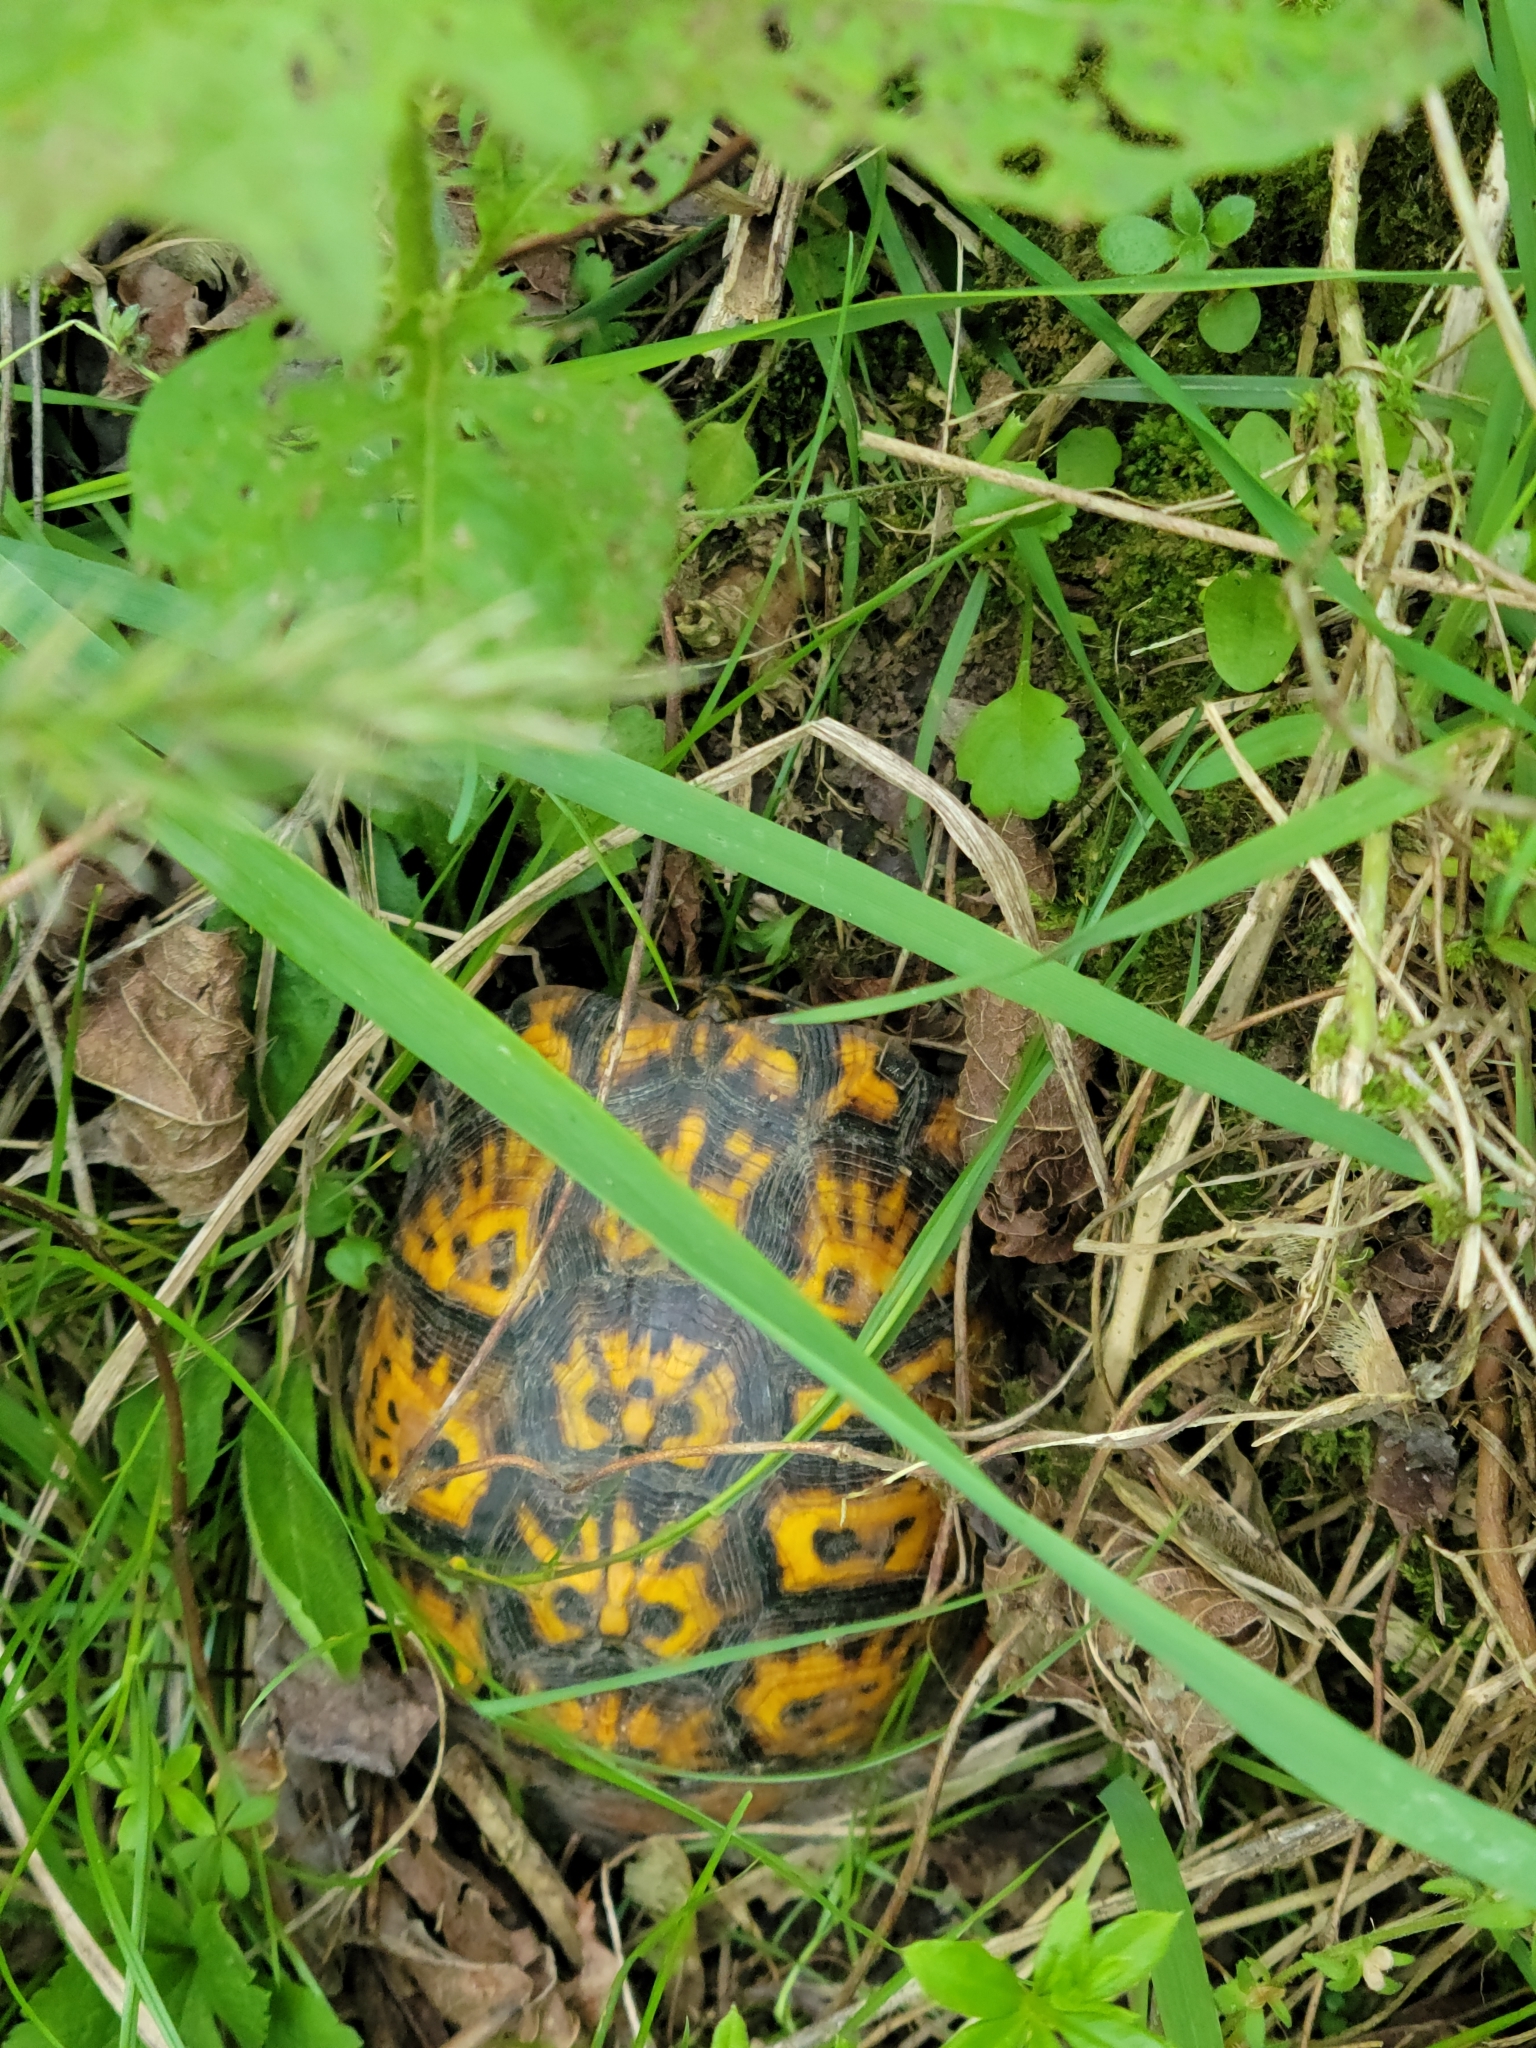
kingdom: Animalia
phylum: Chordata
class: Testudines
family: Emydidae
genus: Terrapene
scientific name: Terrapene carolina
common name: Common box turtle
